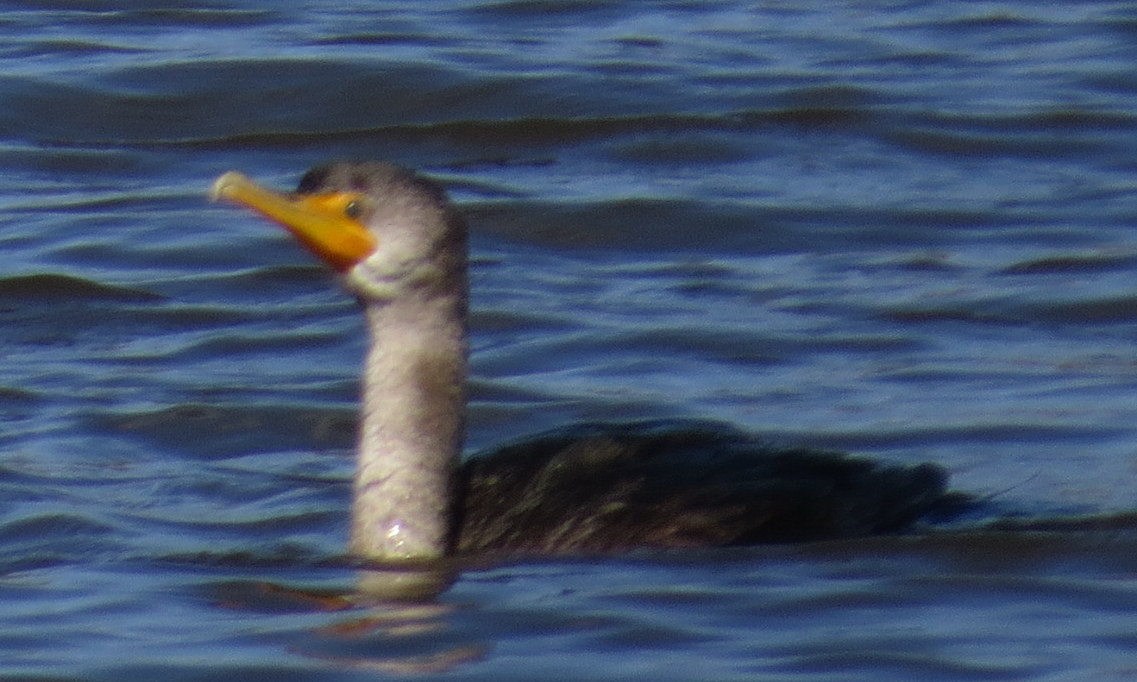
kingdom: Animalia
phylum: Chordata
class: Aves
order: Suliformes
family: Phalacrocoracidae
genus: Phalacrocorax
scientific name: Phalacrocorax auritus
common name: Double-crested cormorant
